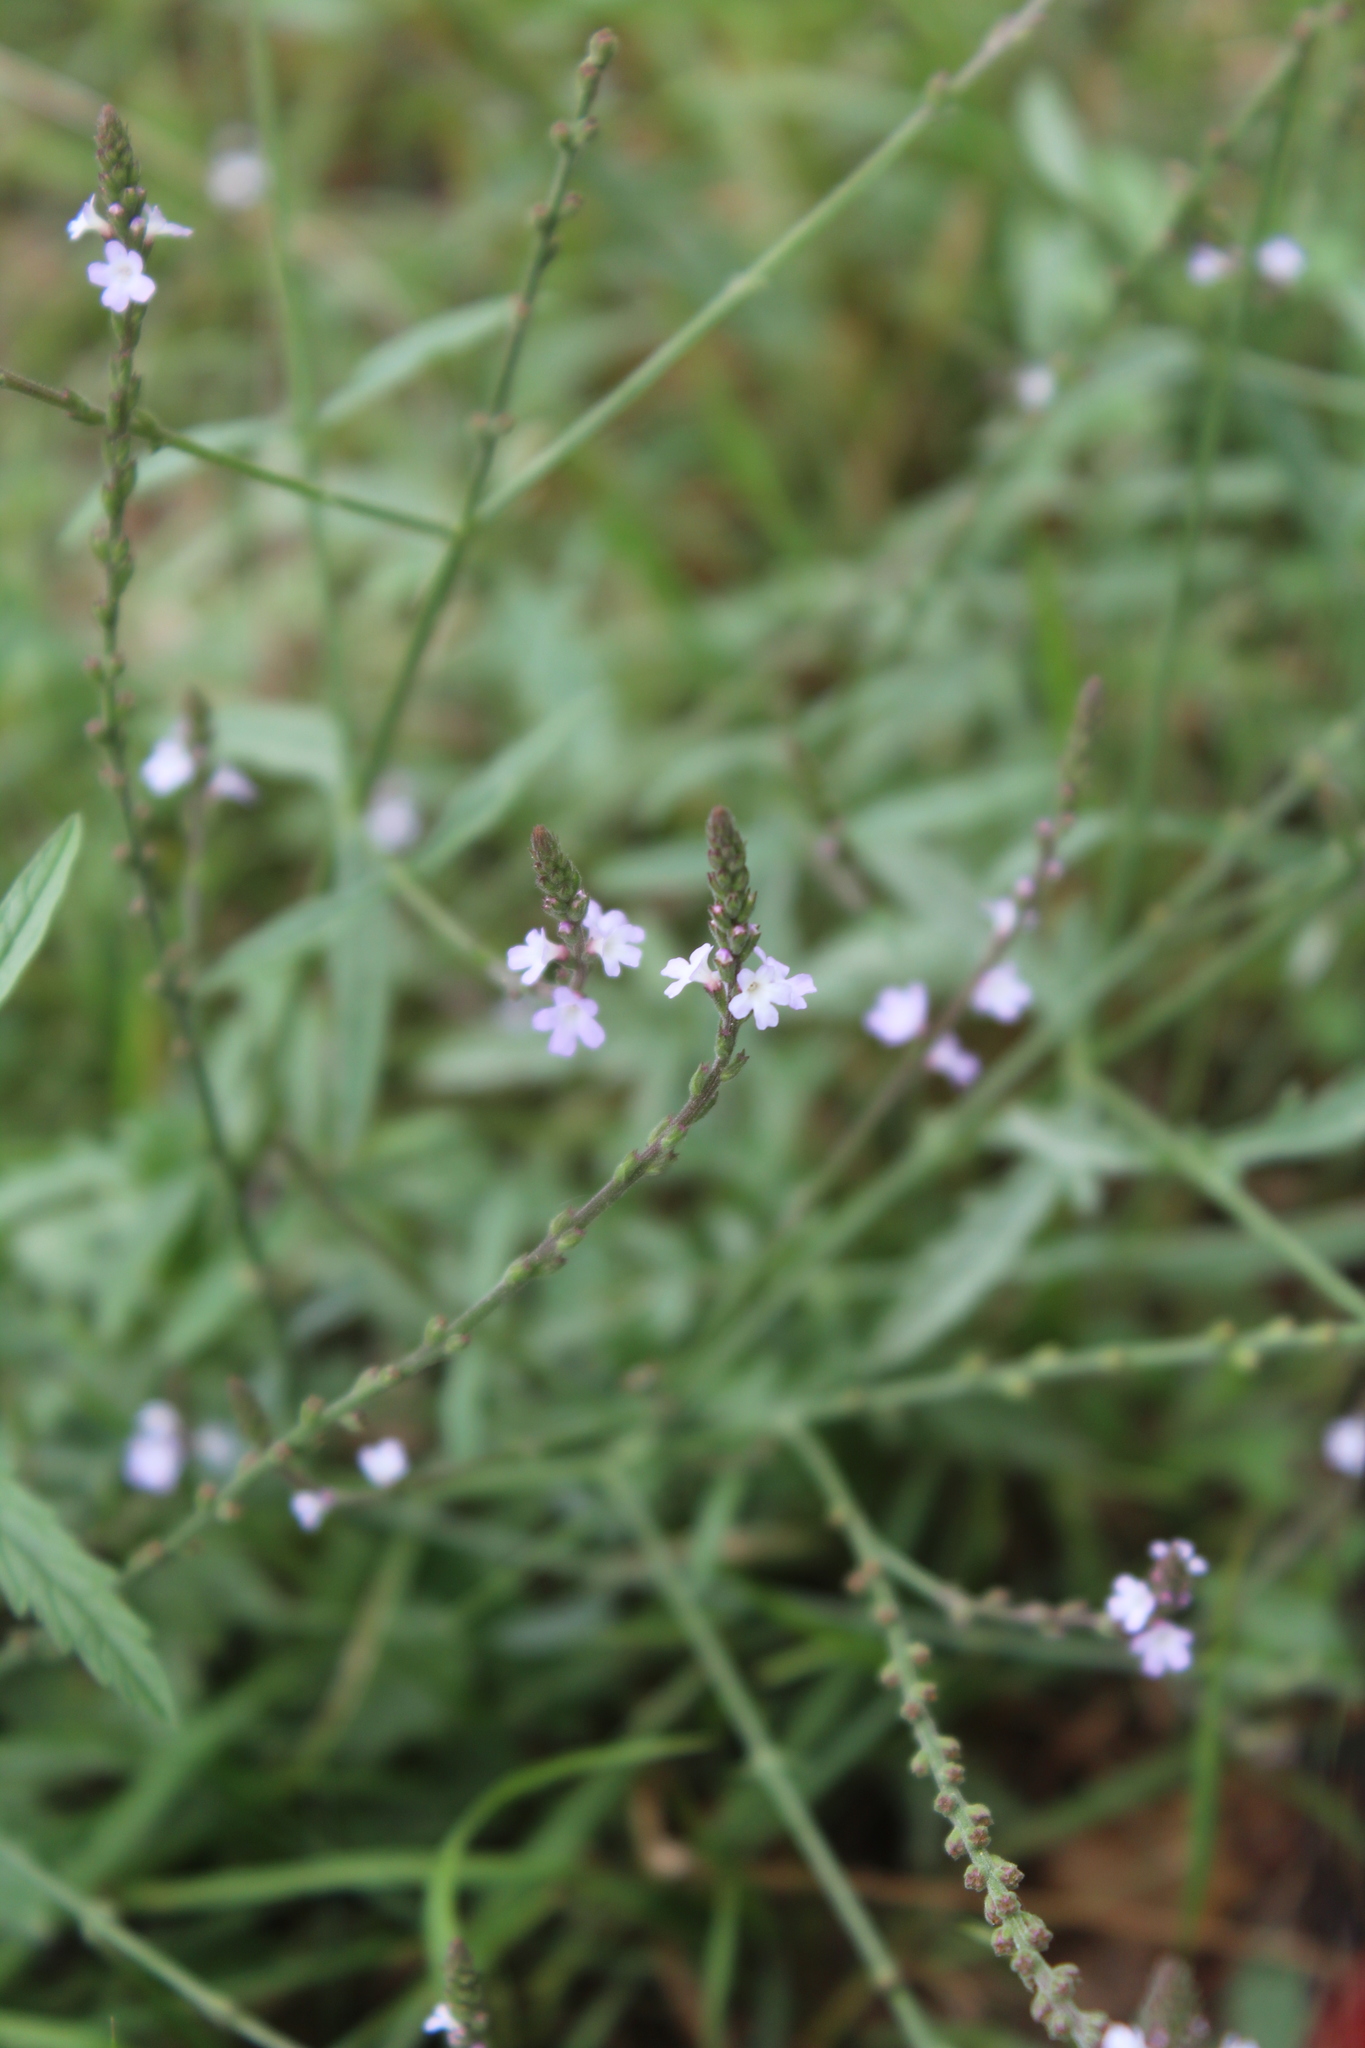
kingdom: Plantae
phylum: Tracheophyta
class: Magnoliopsida
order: Lamiales
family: Verbenaceae
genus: Verbena
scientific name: Verbena officinalis
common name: Vervain
